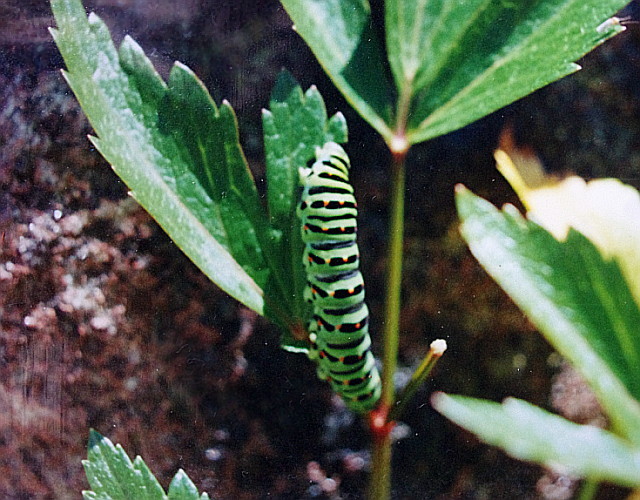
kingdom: Animalia
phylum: Arthropoda
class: Insecta
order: Lepidoptera
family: Papilionidae
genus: Papilio
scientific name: Papilio machaon
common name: Swallowtail
